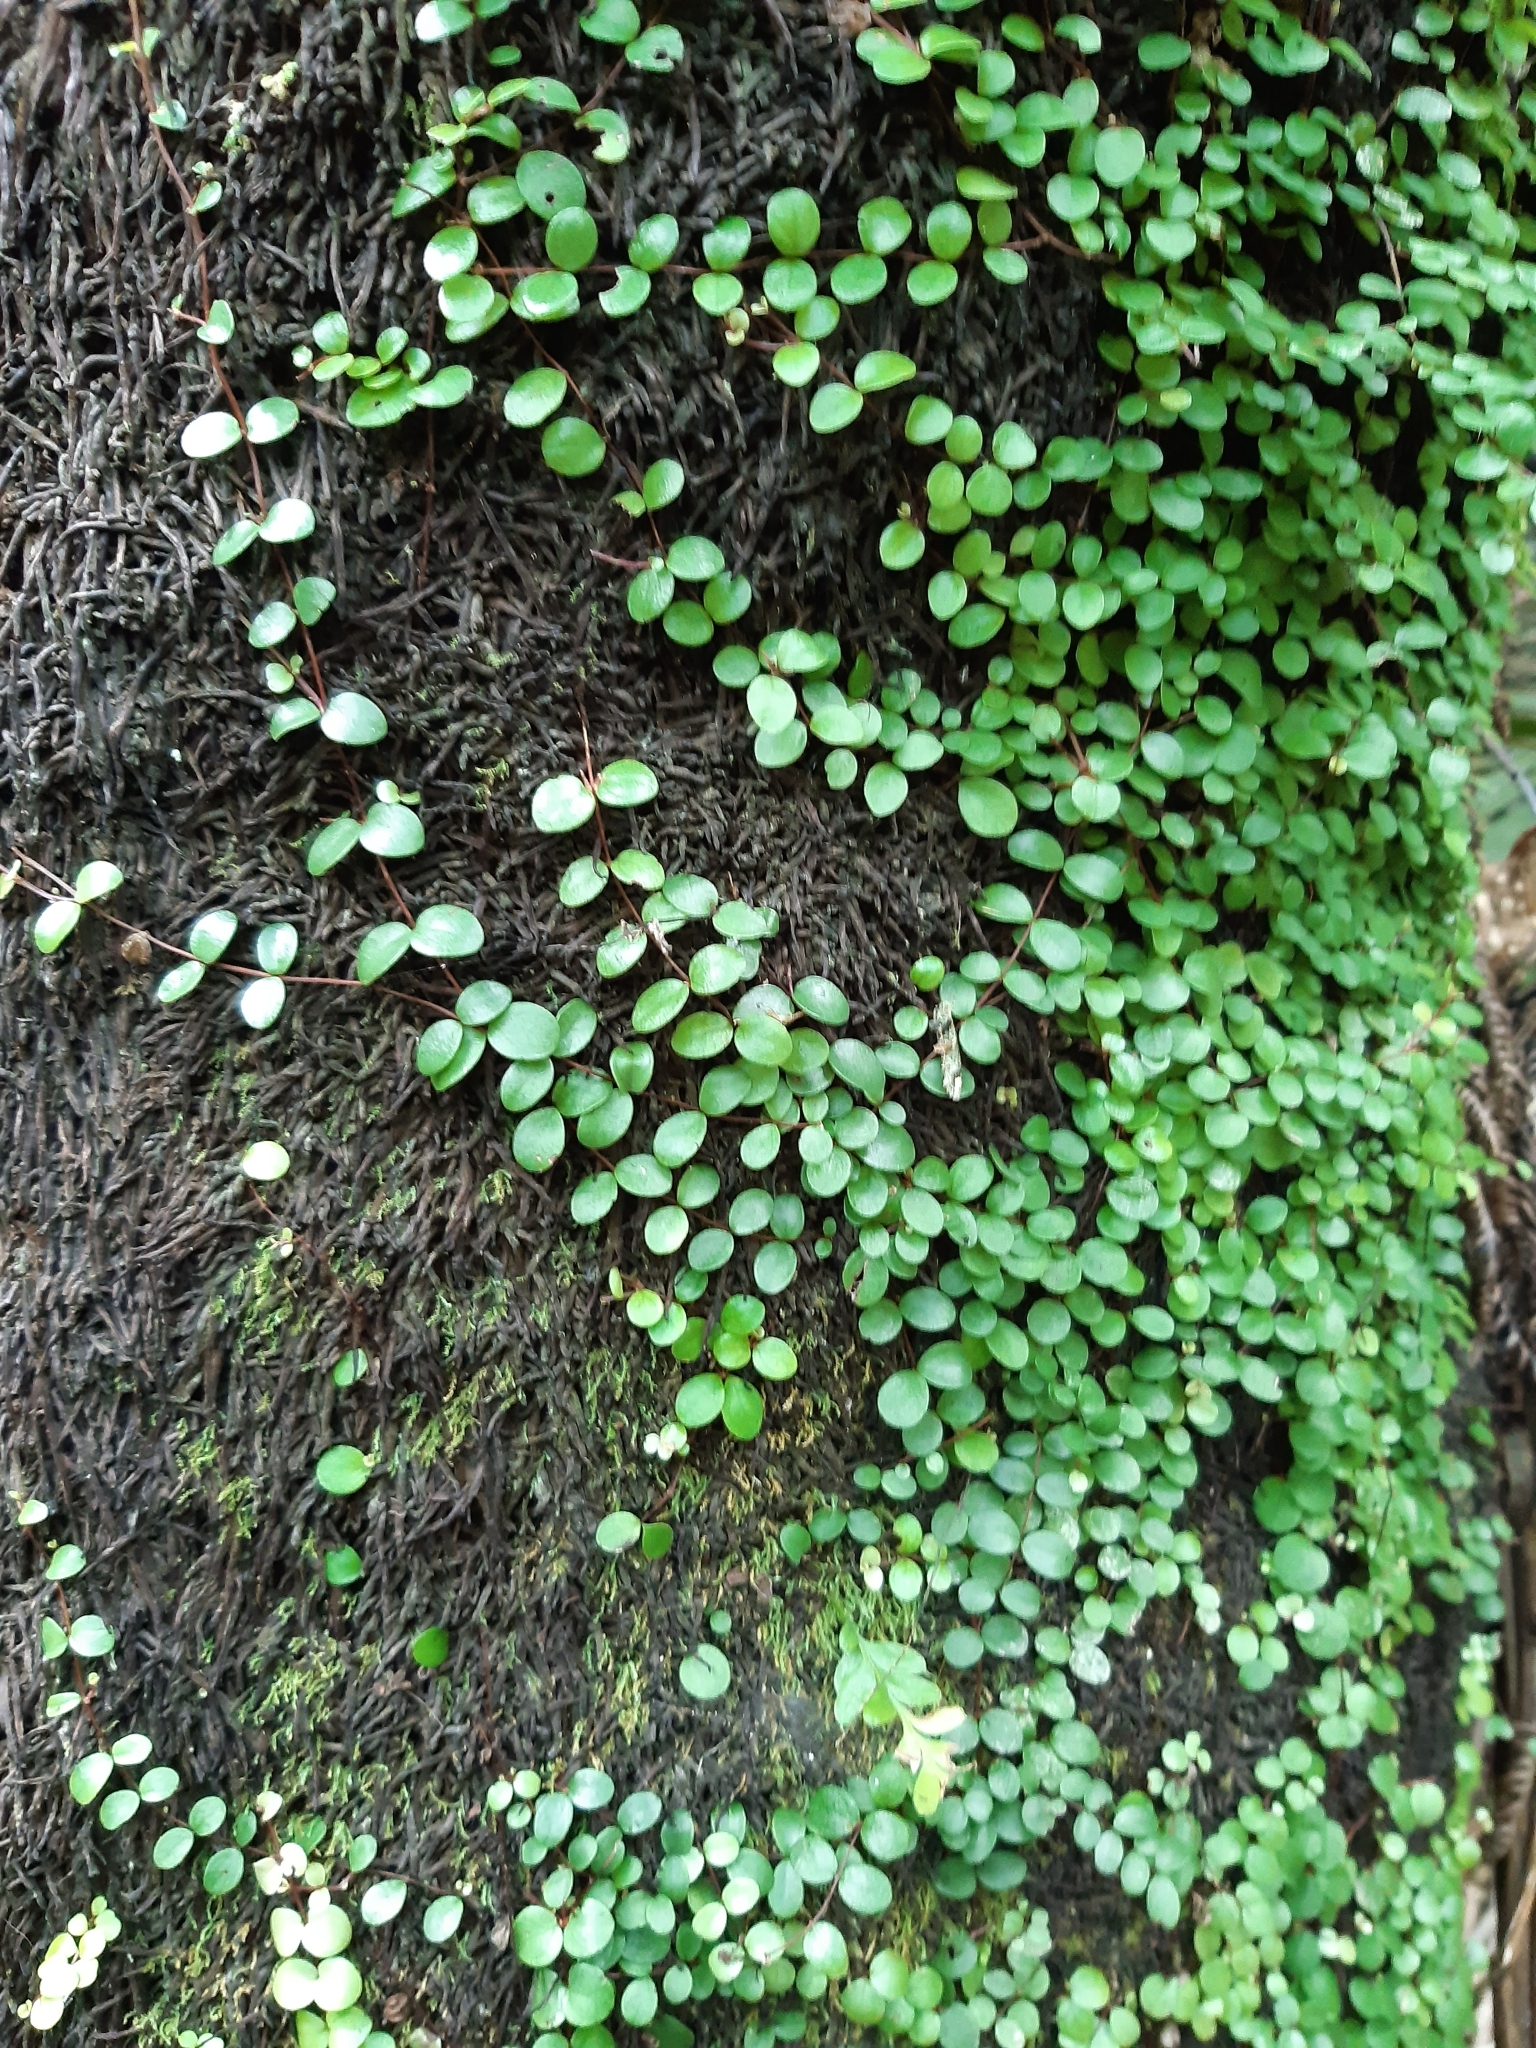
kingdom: Plantae
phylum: Tracheophyta
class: Magnoliopsida
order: Myrtales
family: Myrtaceae
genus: Metrosideros
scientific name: Metrosideros perforata
